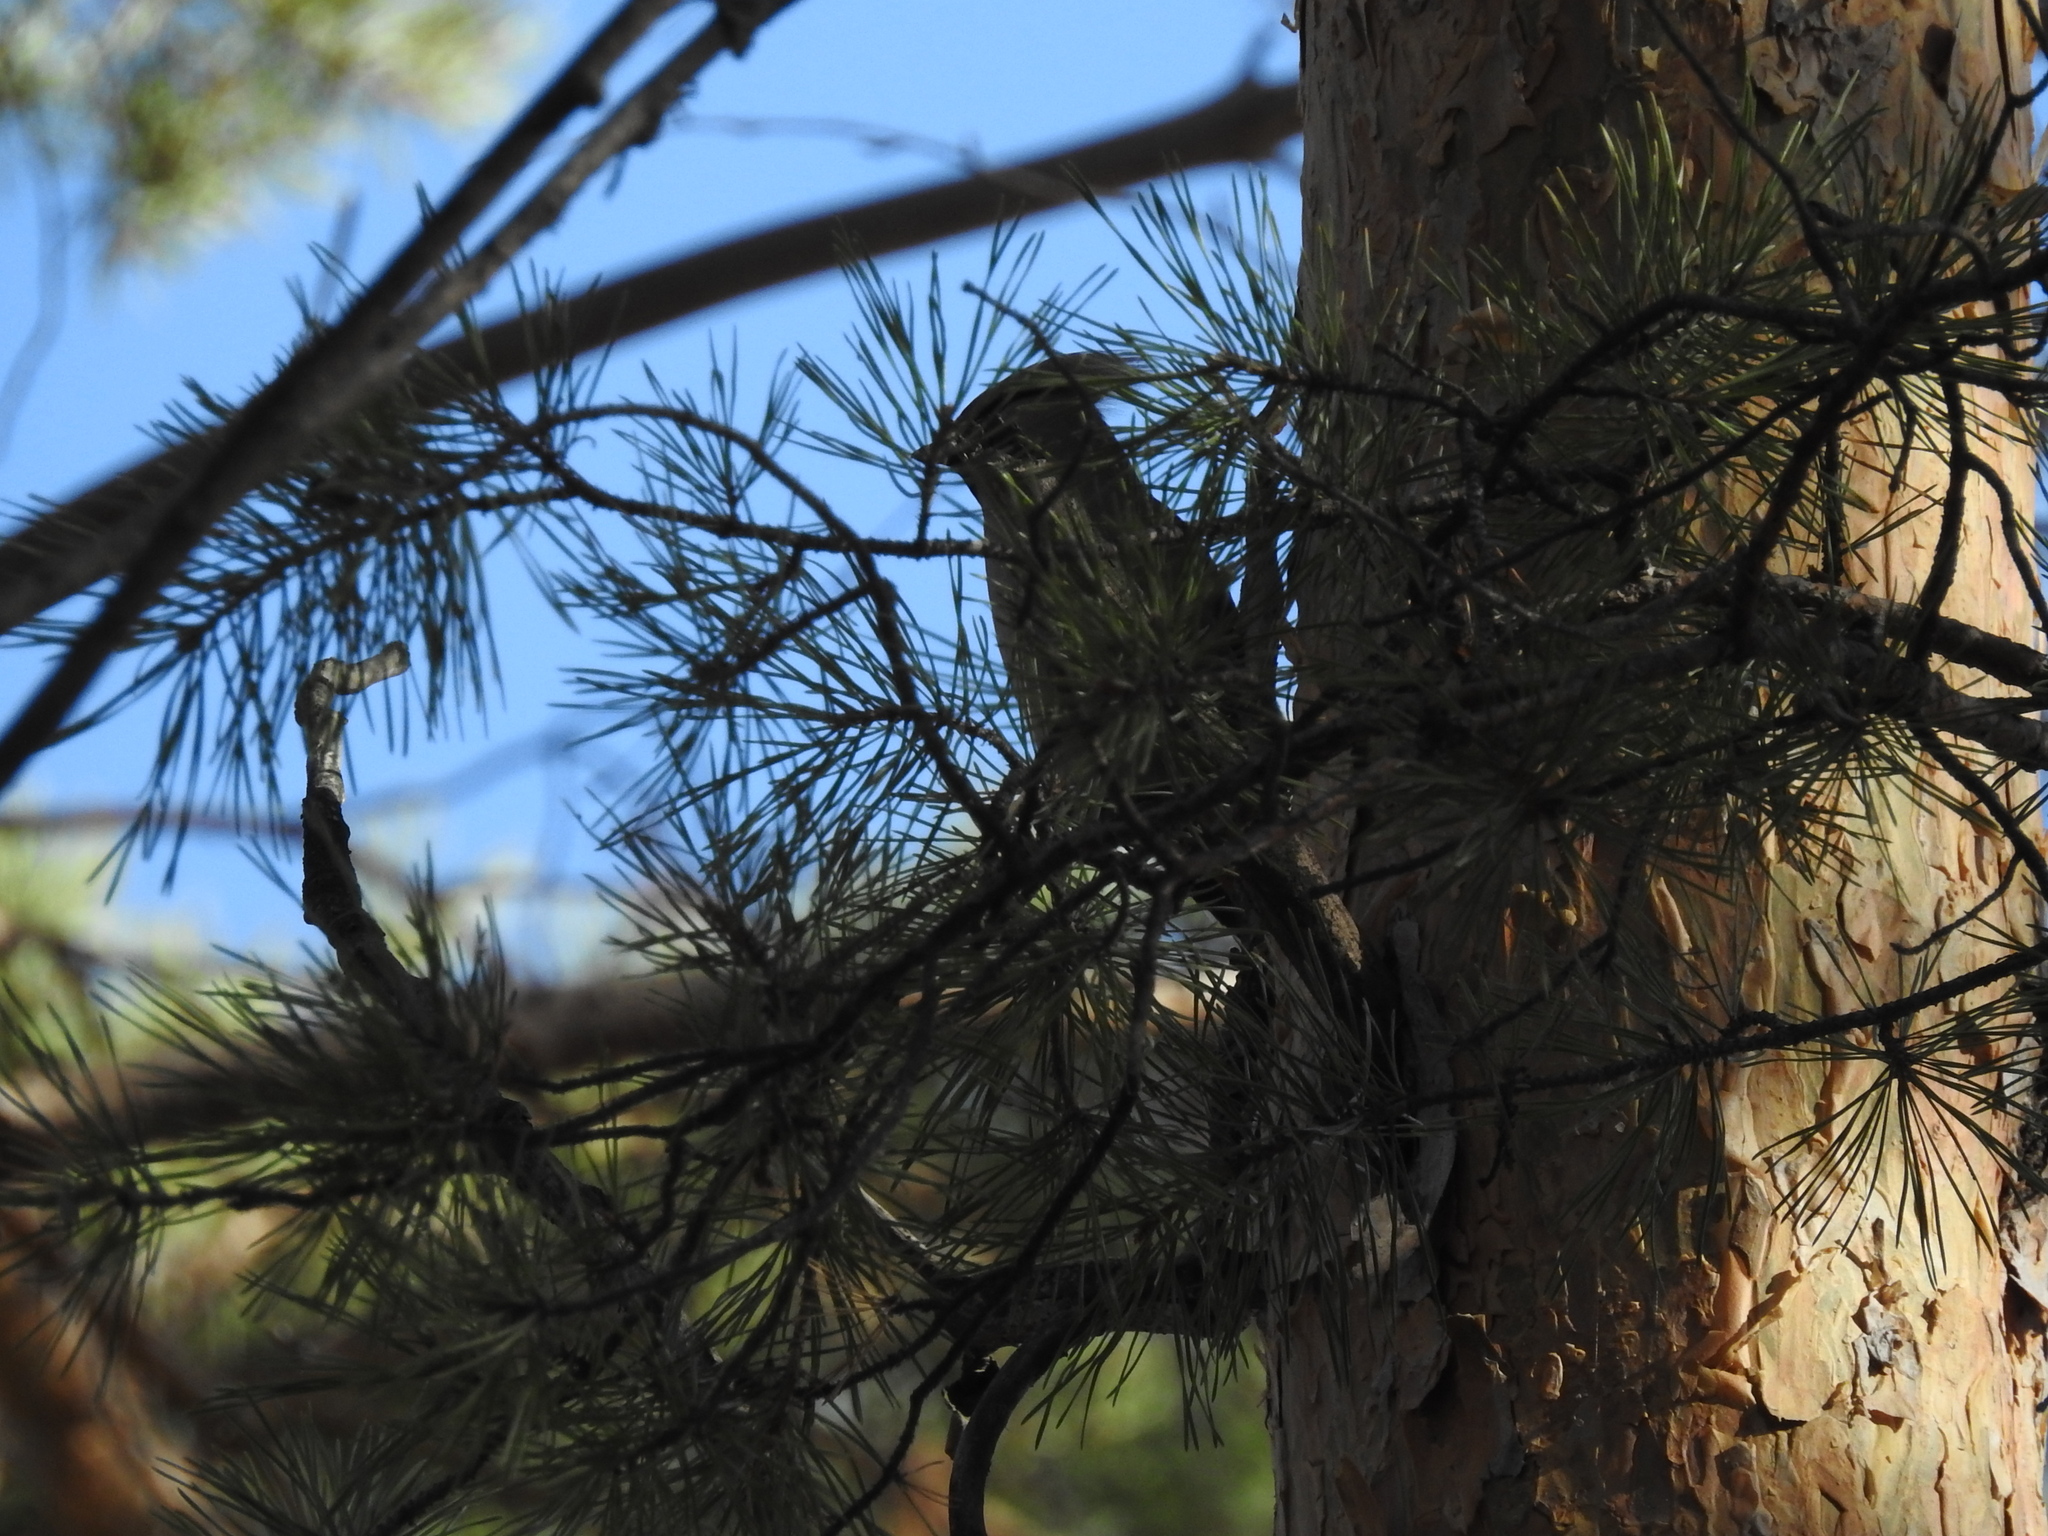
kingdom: Animalia
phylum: Chordata
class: Aves
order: Passeriformes
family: Bombycillidae
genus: Bombycilla
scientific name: Bombycilla garrulus
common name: Bohemian waxwing
